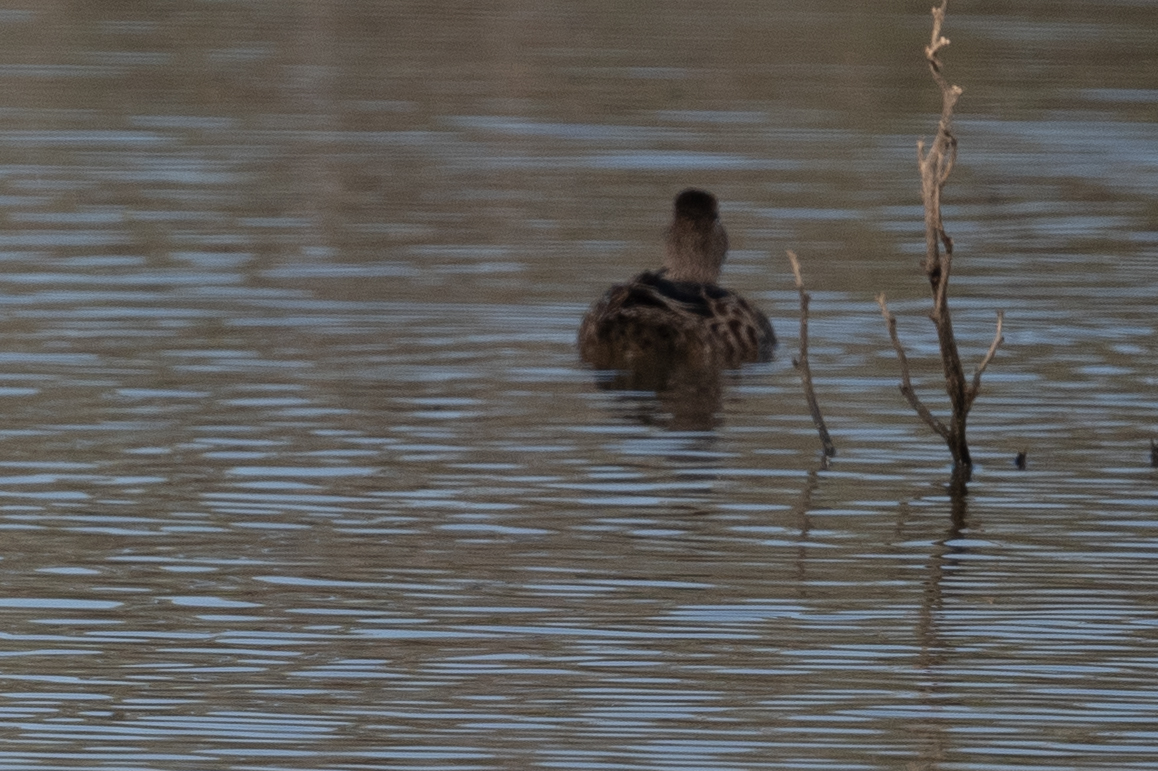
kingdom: Animalia
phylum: Chordata
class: Aves
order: Anseriformes
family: Anatidae
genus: Spatula
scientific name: Spatula discors
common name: Blue-winged teal
